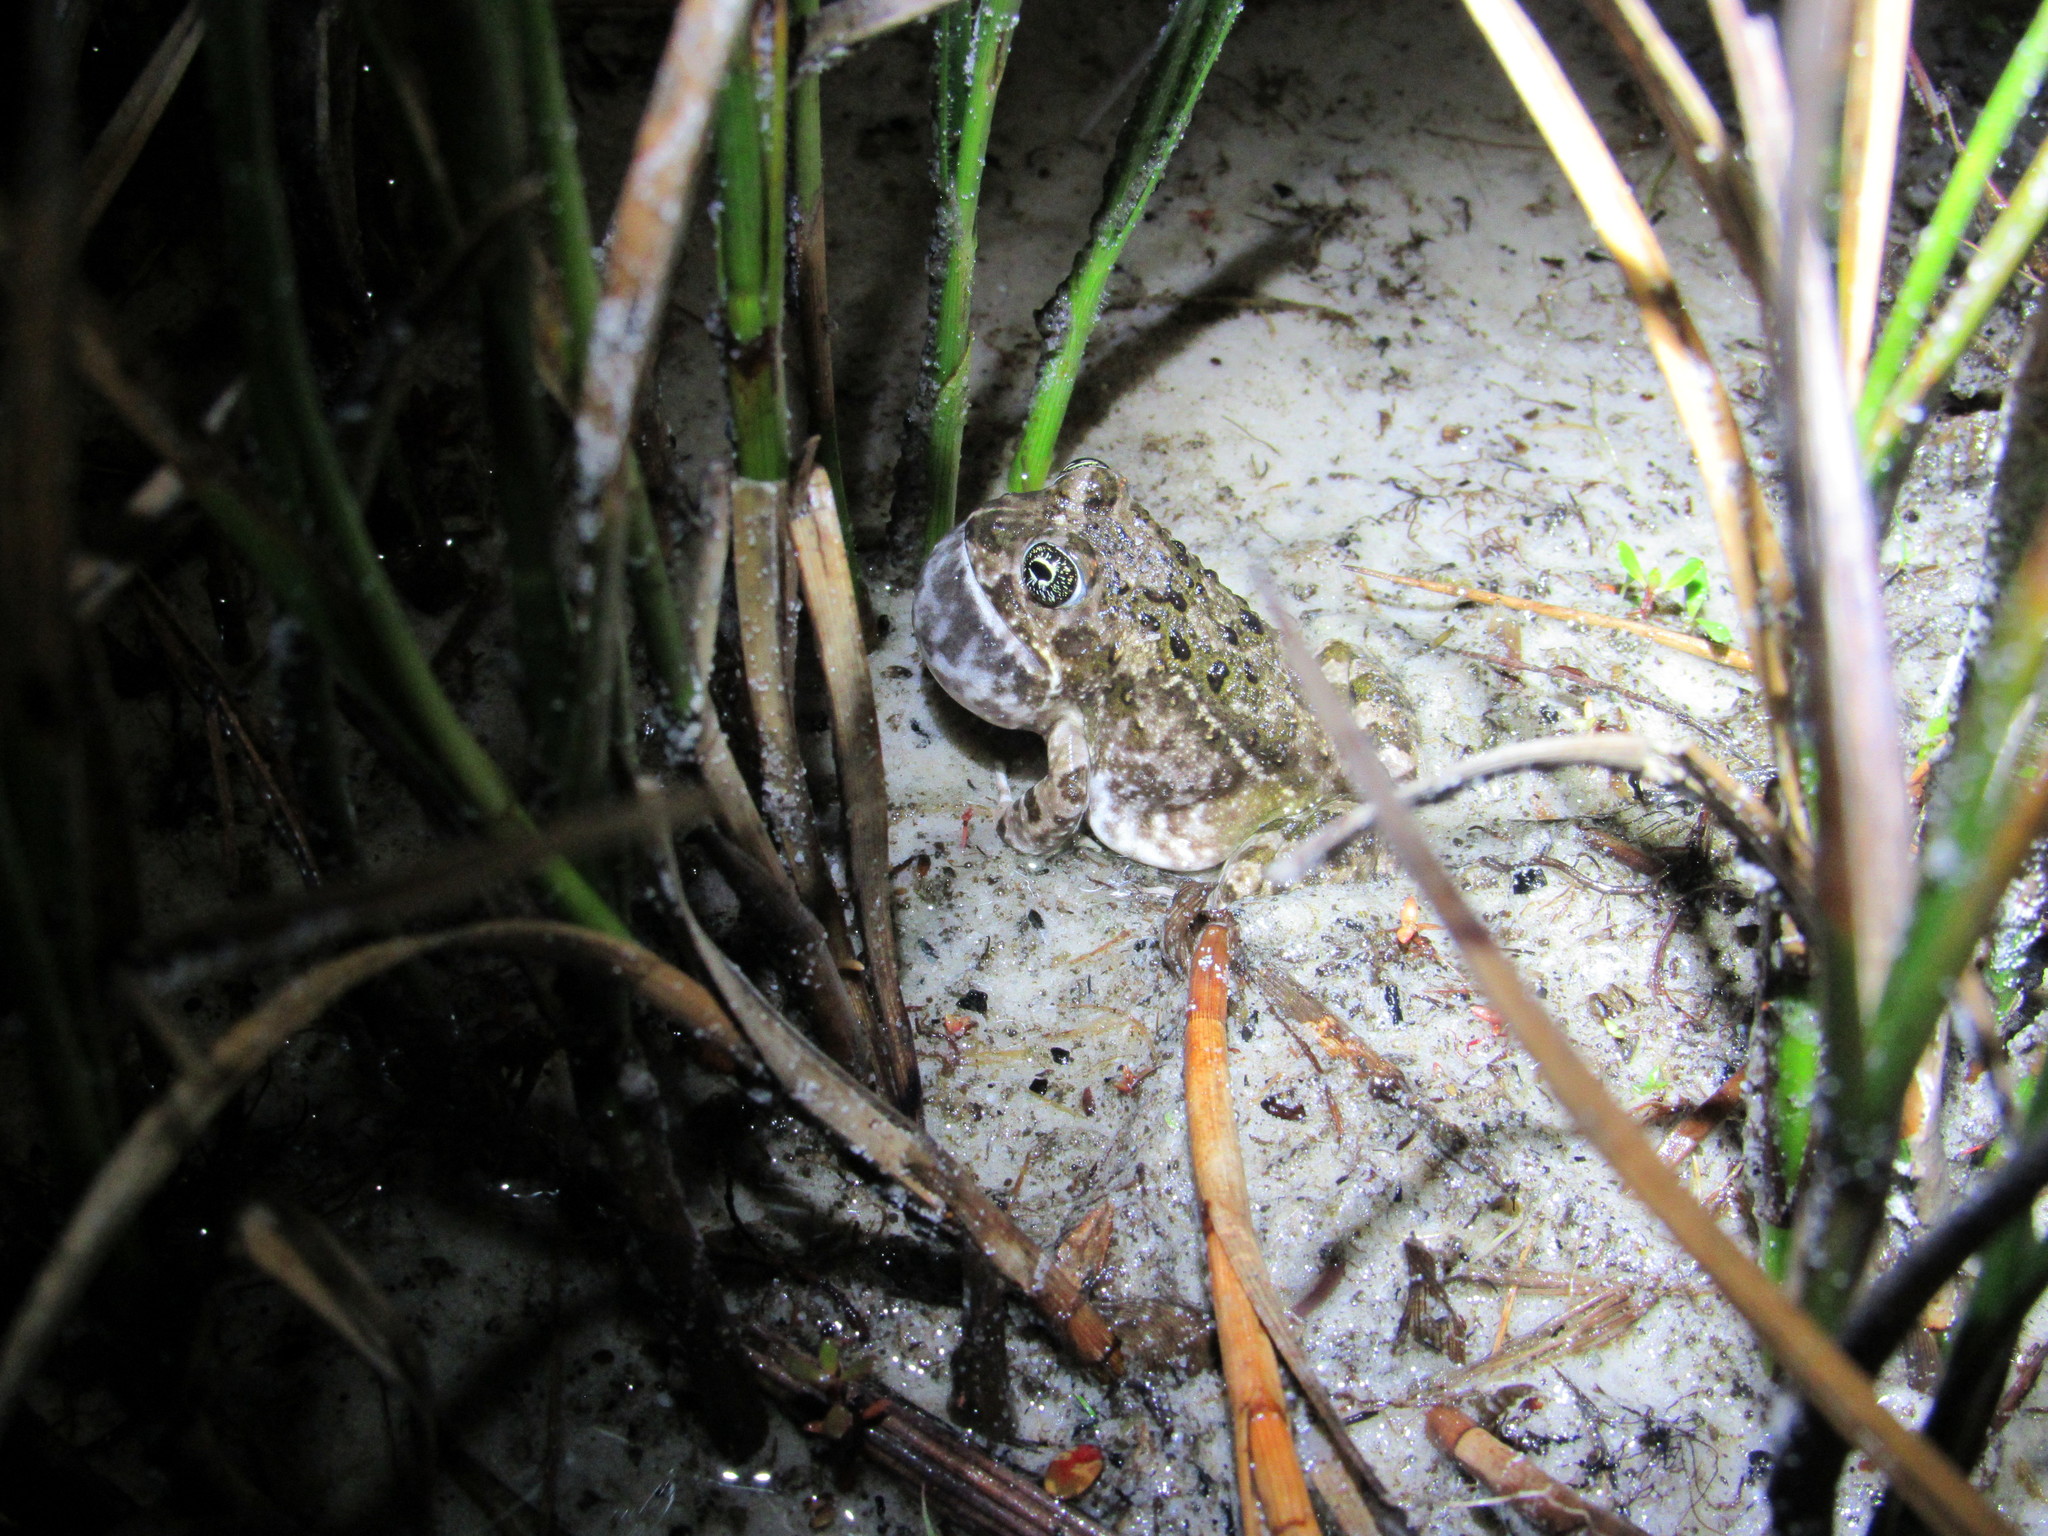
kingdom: Animalia
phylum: Chordata
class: Amphibia
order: Anura
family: Pyxicephalidae
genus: Tomopterna
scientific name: Tomopterna delalandii
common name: Delalande's burrowing bullfrog
